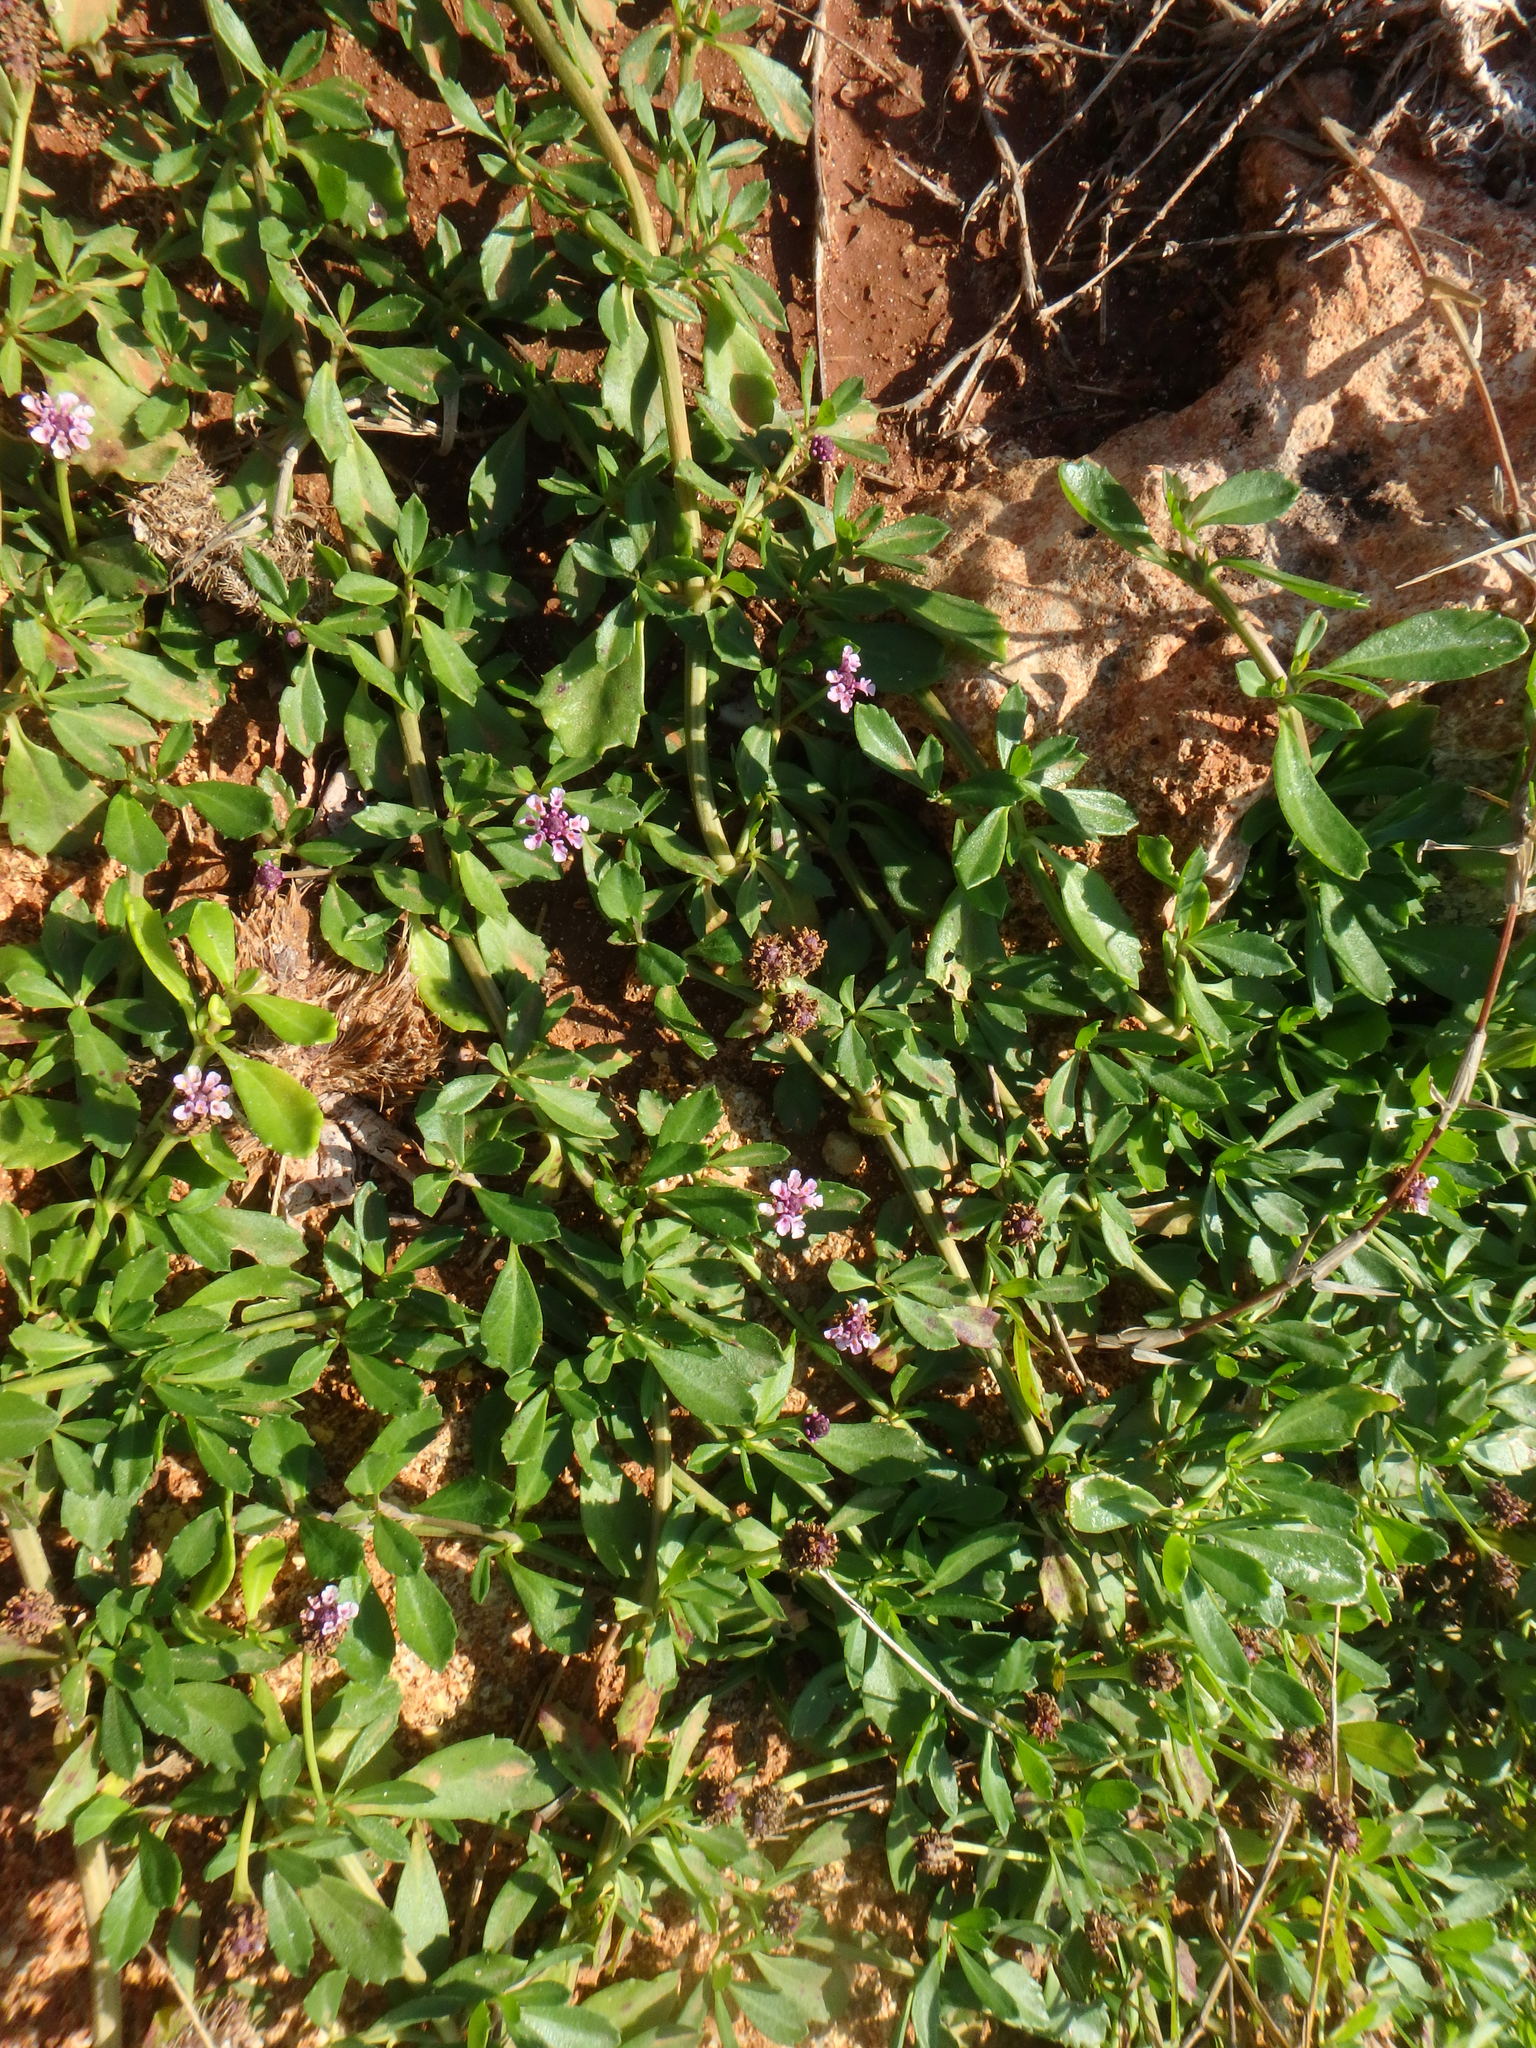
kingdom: Plantae
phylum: Tracheophyta
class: Magnoliopsida
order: Lamiales
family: Verbenaceae
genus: Phyla
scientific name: Phyla nodiflora
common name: Frogfruit
